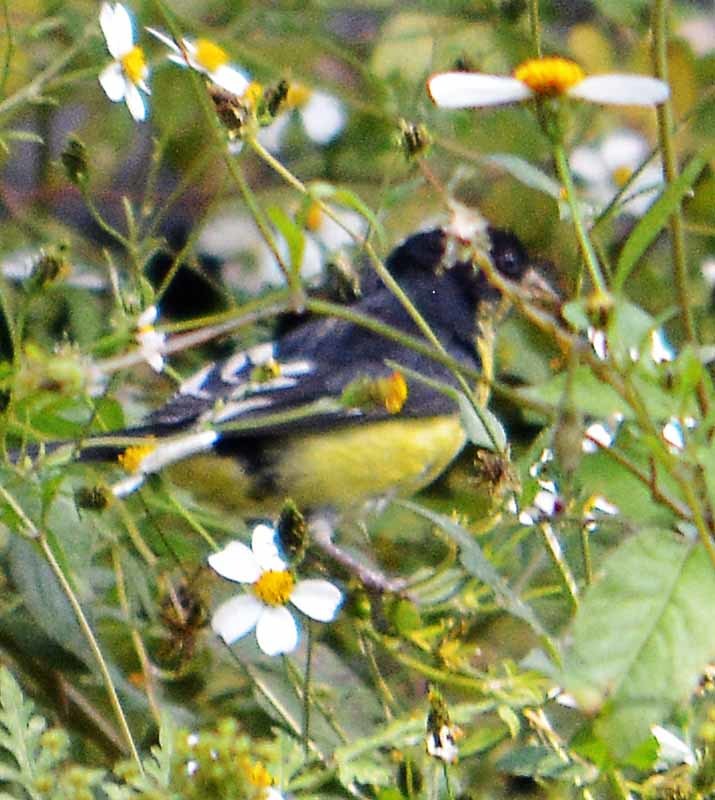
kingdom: Animalia
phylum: Chordata
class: Aves
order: Passeriformes
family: Fringillidae
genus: Spinus
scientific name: Spinus psaltria
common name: Lesser goldfinch
